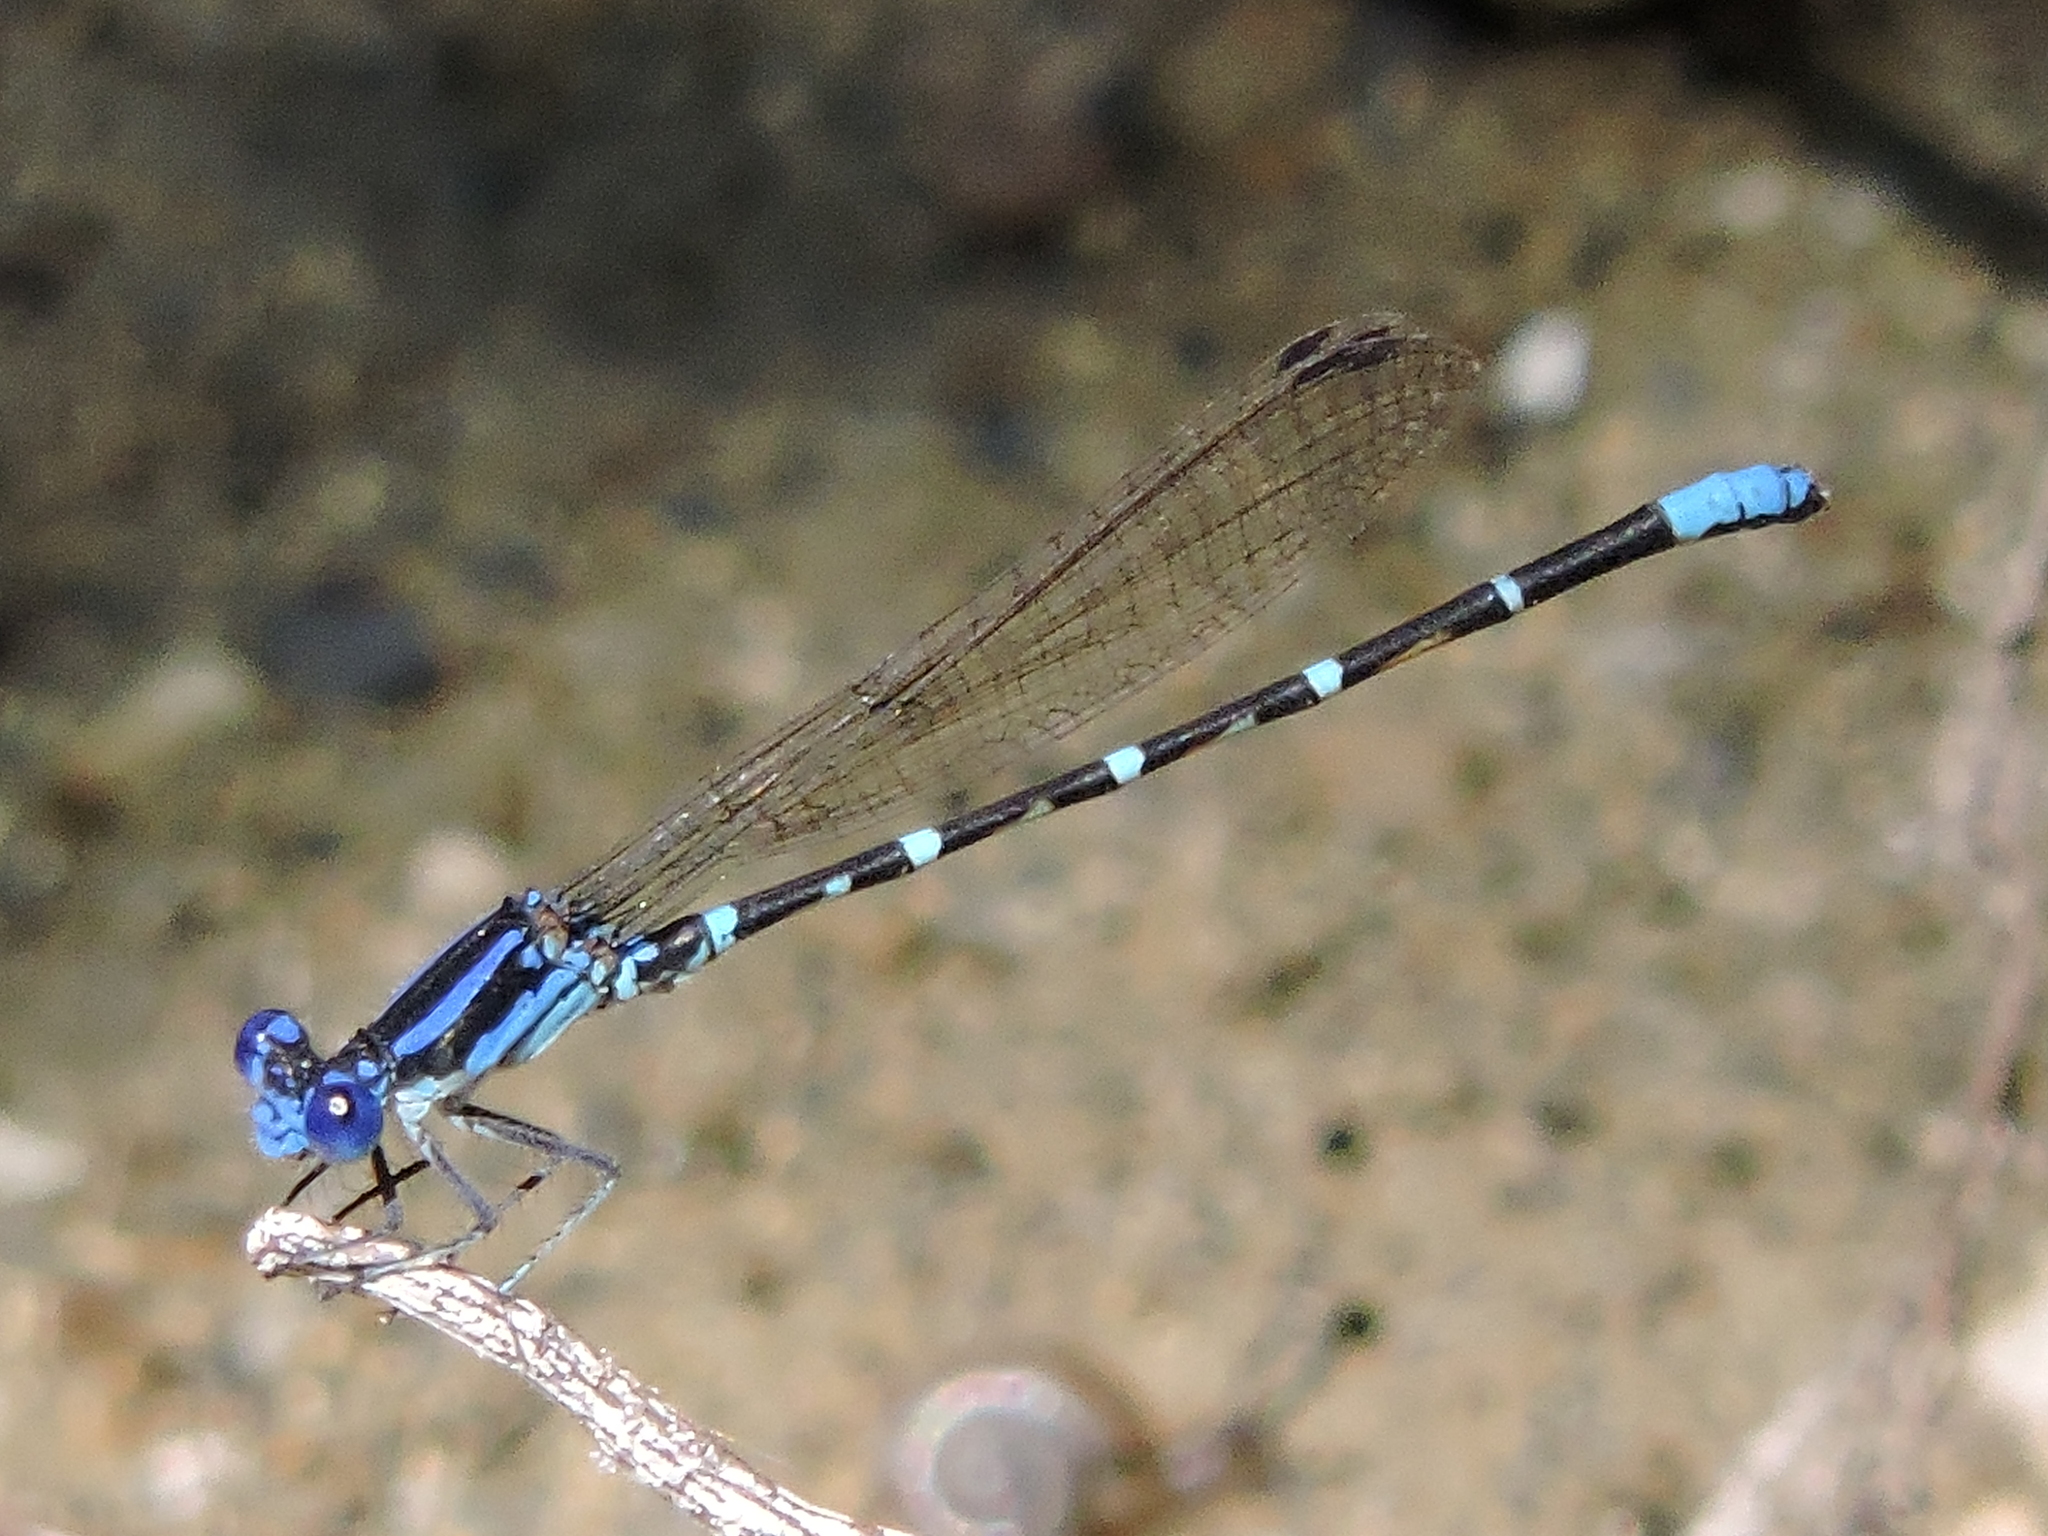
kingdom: Animalia
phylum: Arthropoda
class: Insecta
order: Odonata
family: Coenagrionidae
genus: Argia
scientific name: Argia sedula
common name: Blue-ringed dancer
